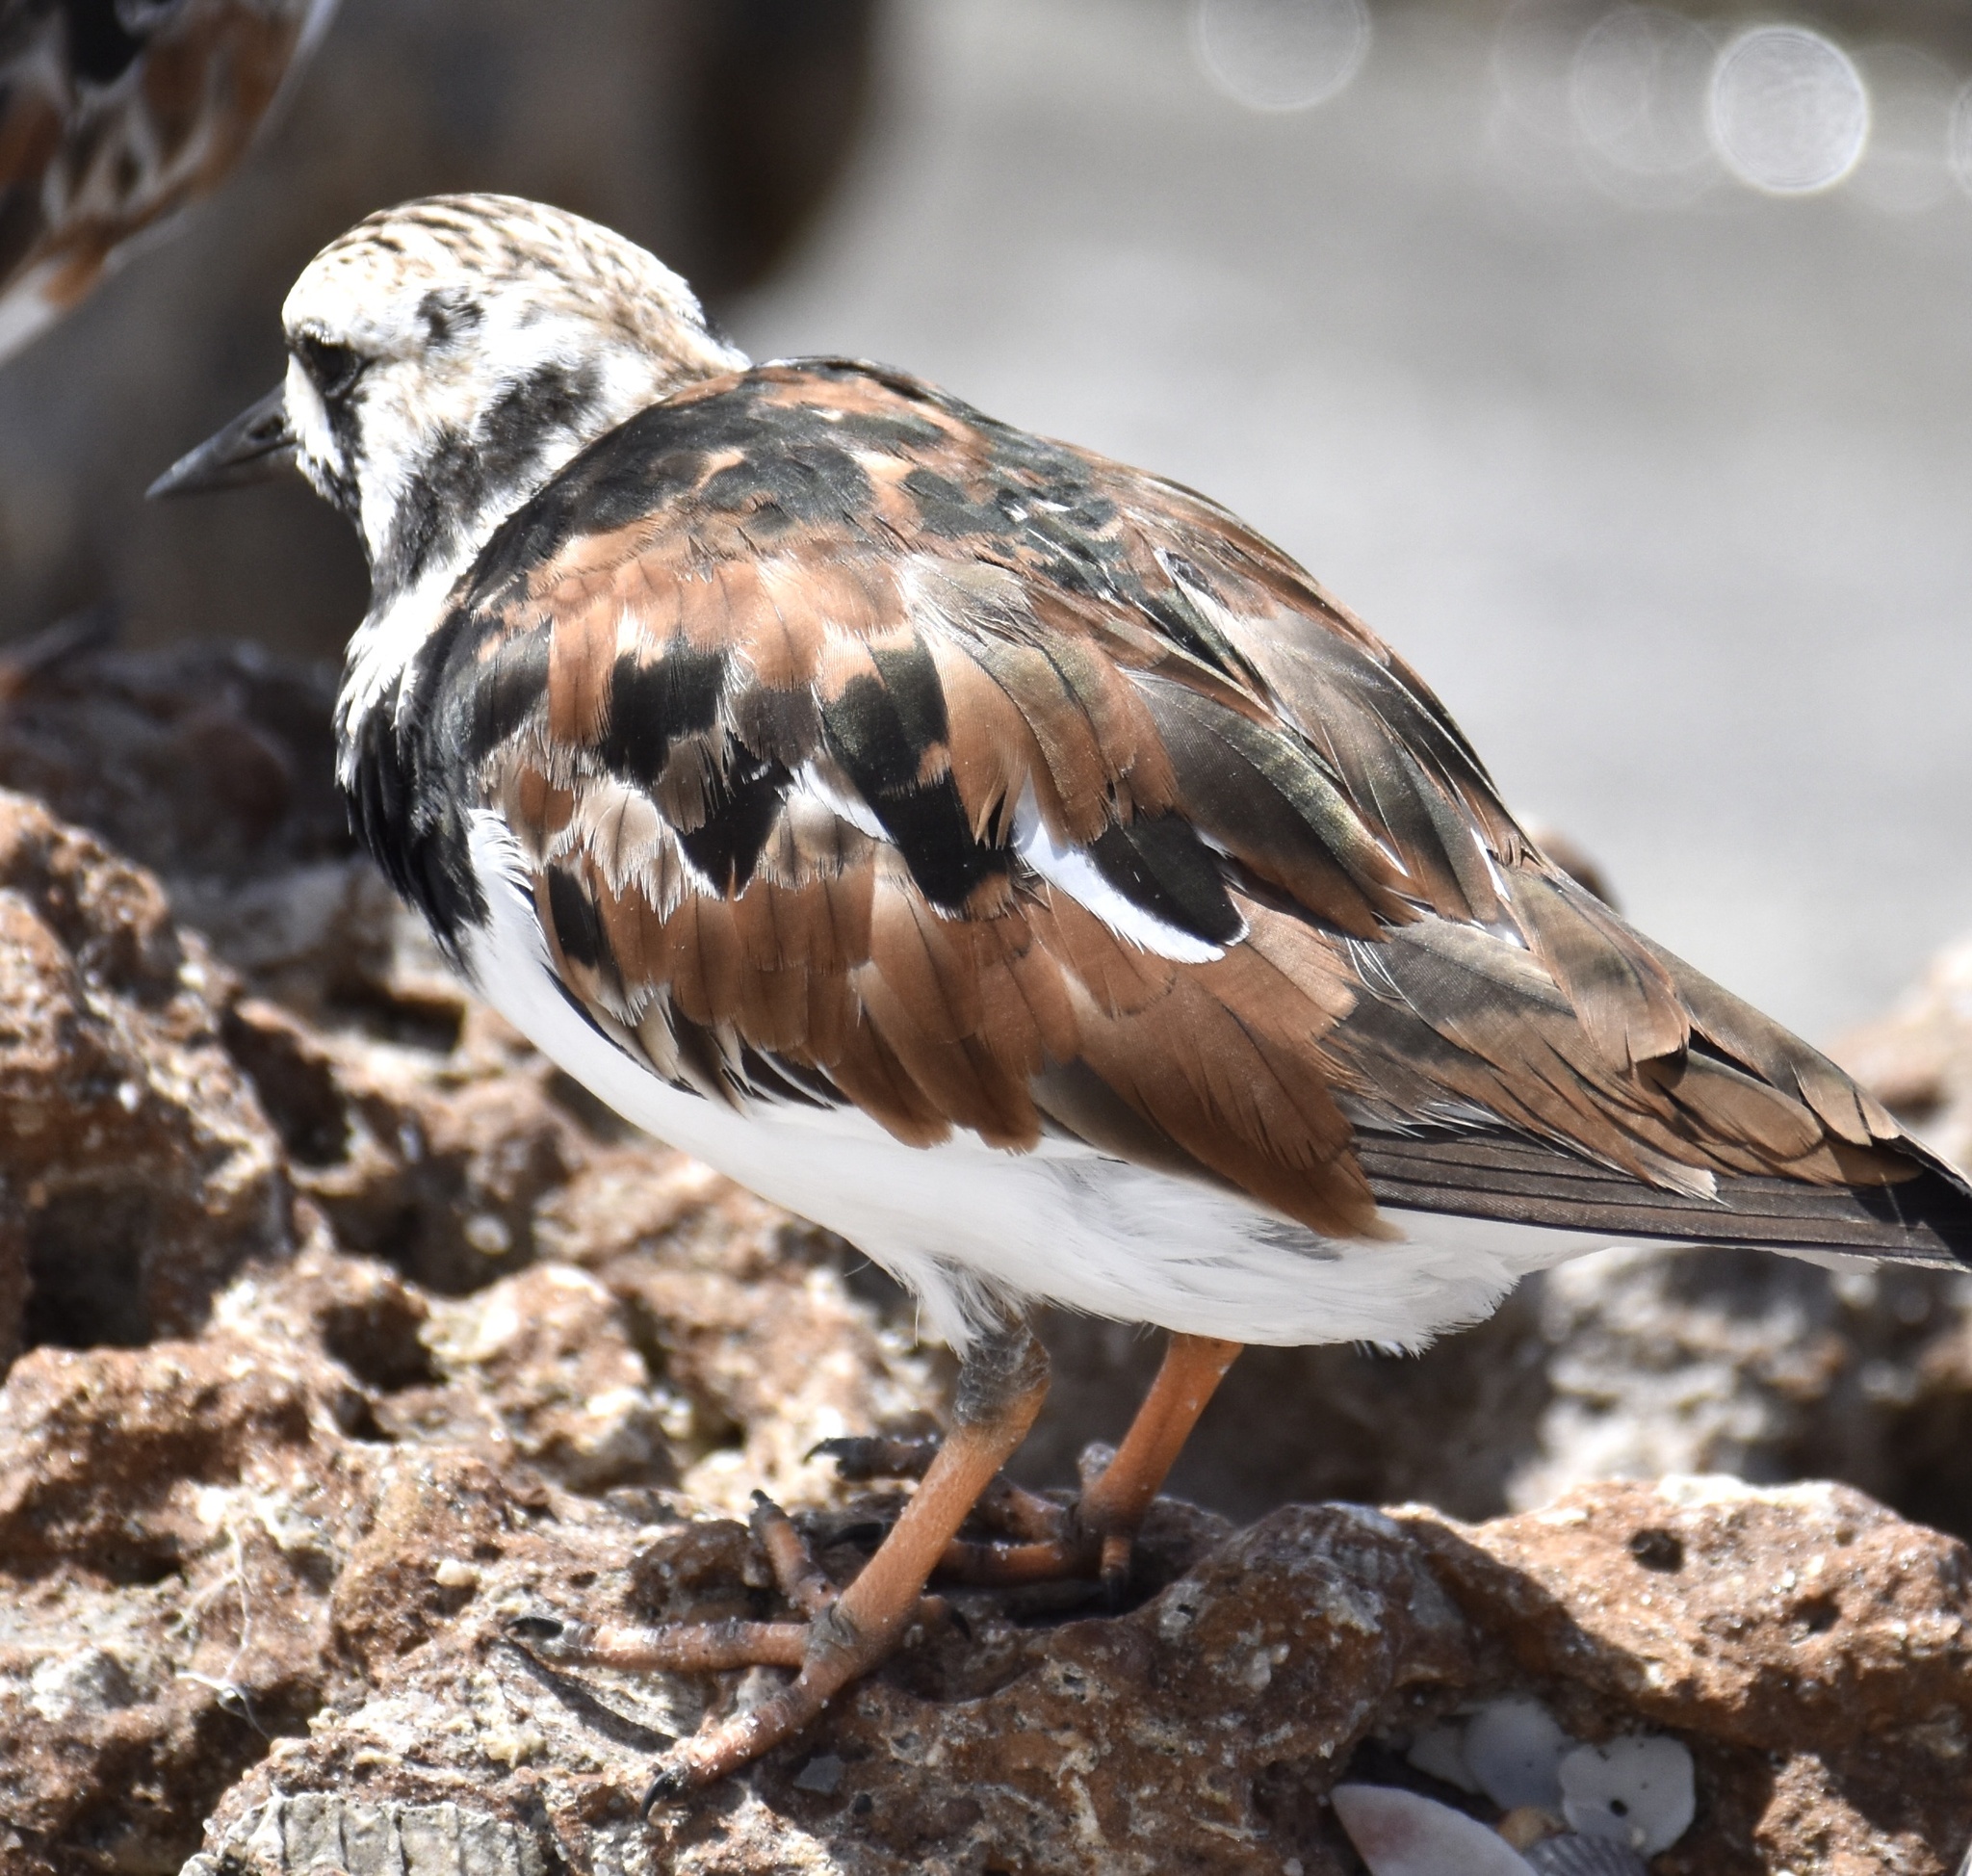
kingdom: Animalia
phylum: Chordata
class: Aves
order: Charadriiformes
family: Scolopacidae
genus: Arenaria
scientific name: Arenaria interpres
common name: Ruddy turnstone
